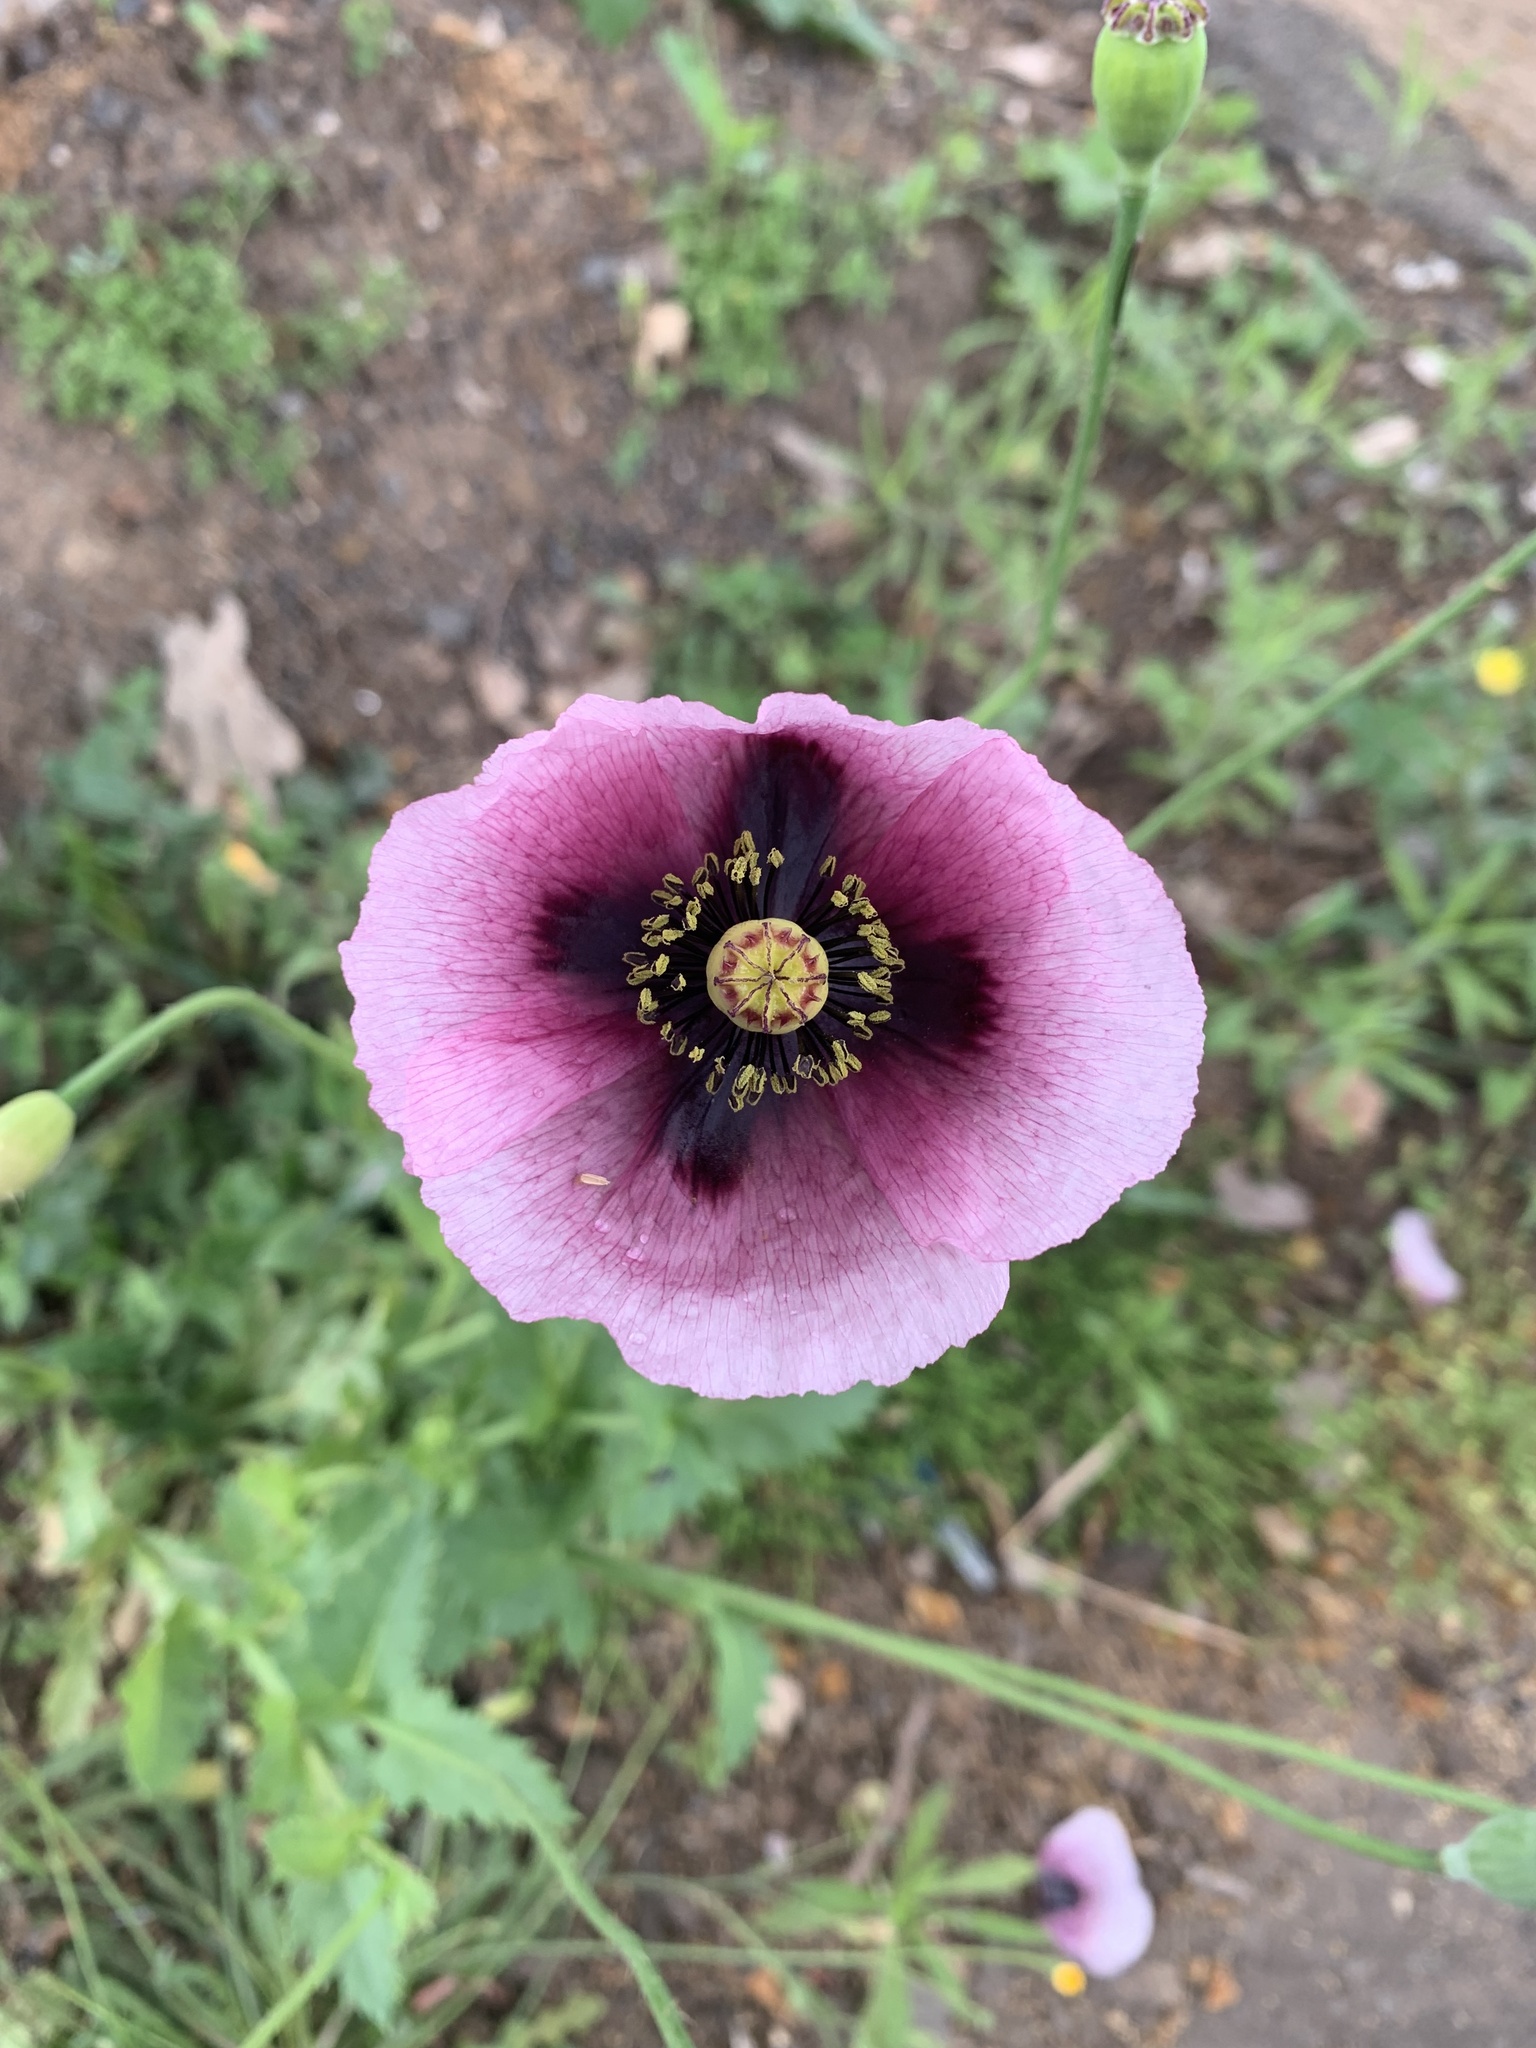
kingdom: Plantae
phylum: Tracheophyta
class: Magnoliopsida
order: Ranunculales
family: Papaveraceae
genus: Papaver
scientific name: Papaver somniferum
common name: Opium poppy
